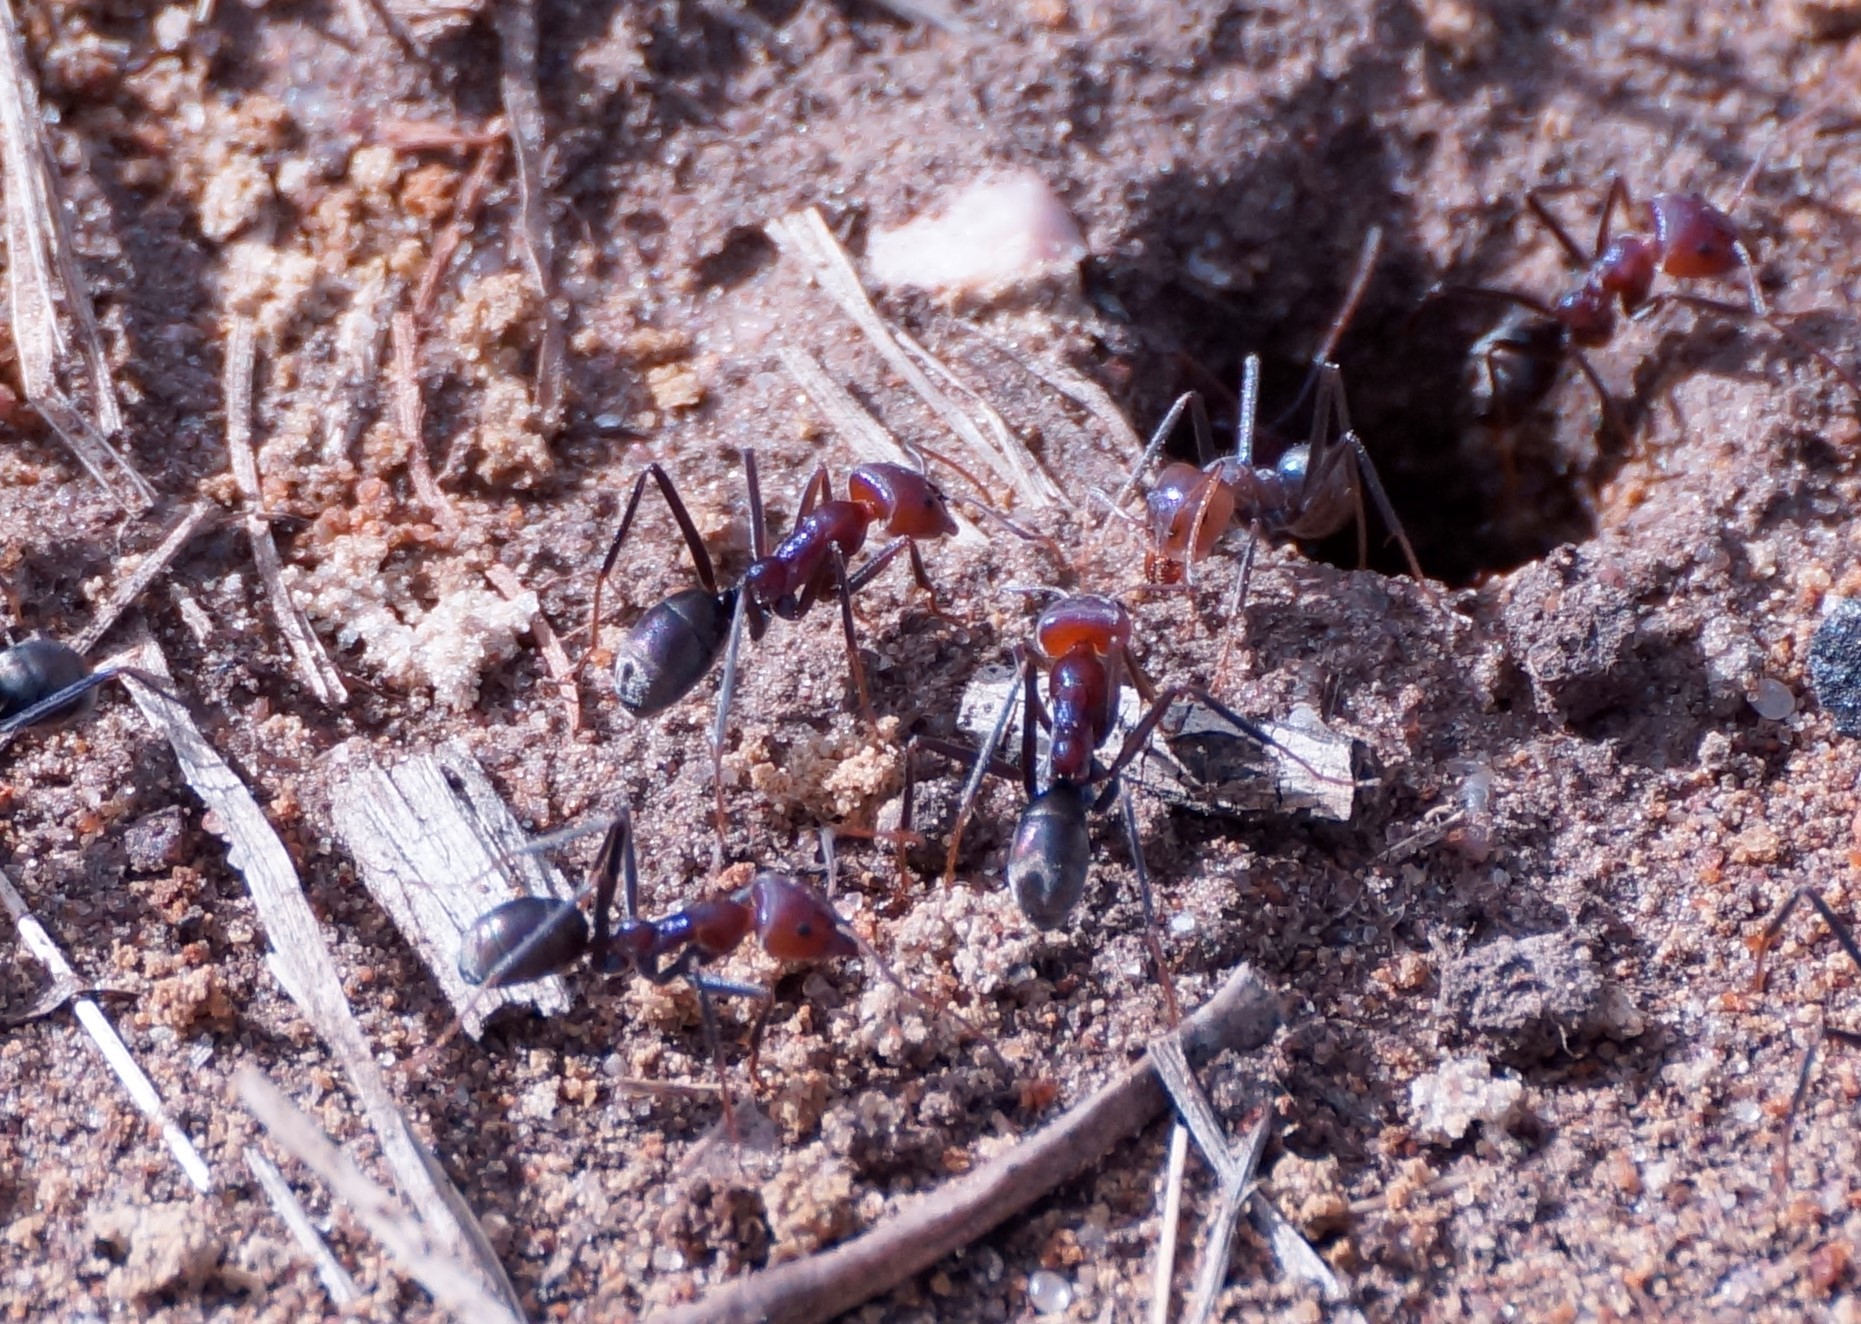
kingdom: Animalia
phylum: Arthropoda
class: Insecta
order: Hymenoptera
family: Formicidae
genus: Iridomyrmex
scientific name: Iridomyrmex purpureus
